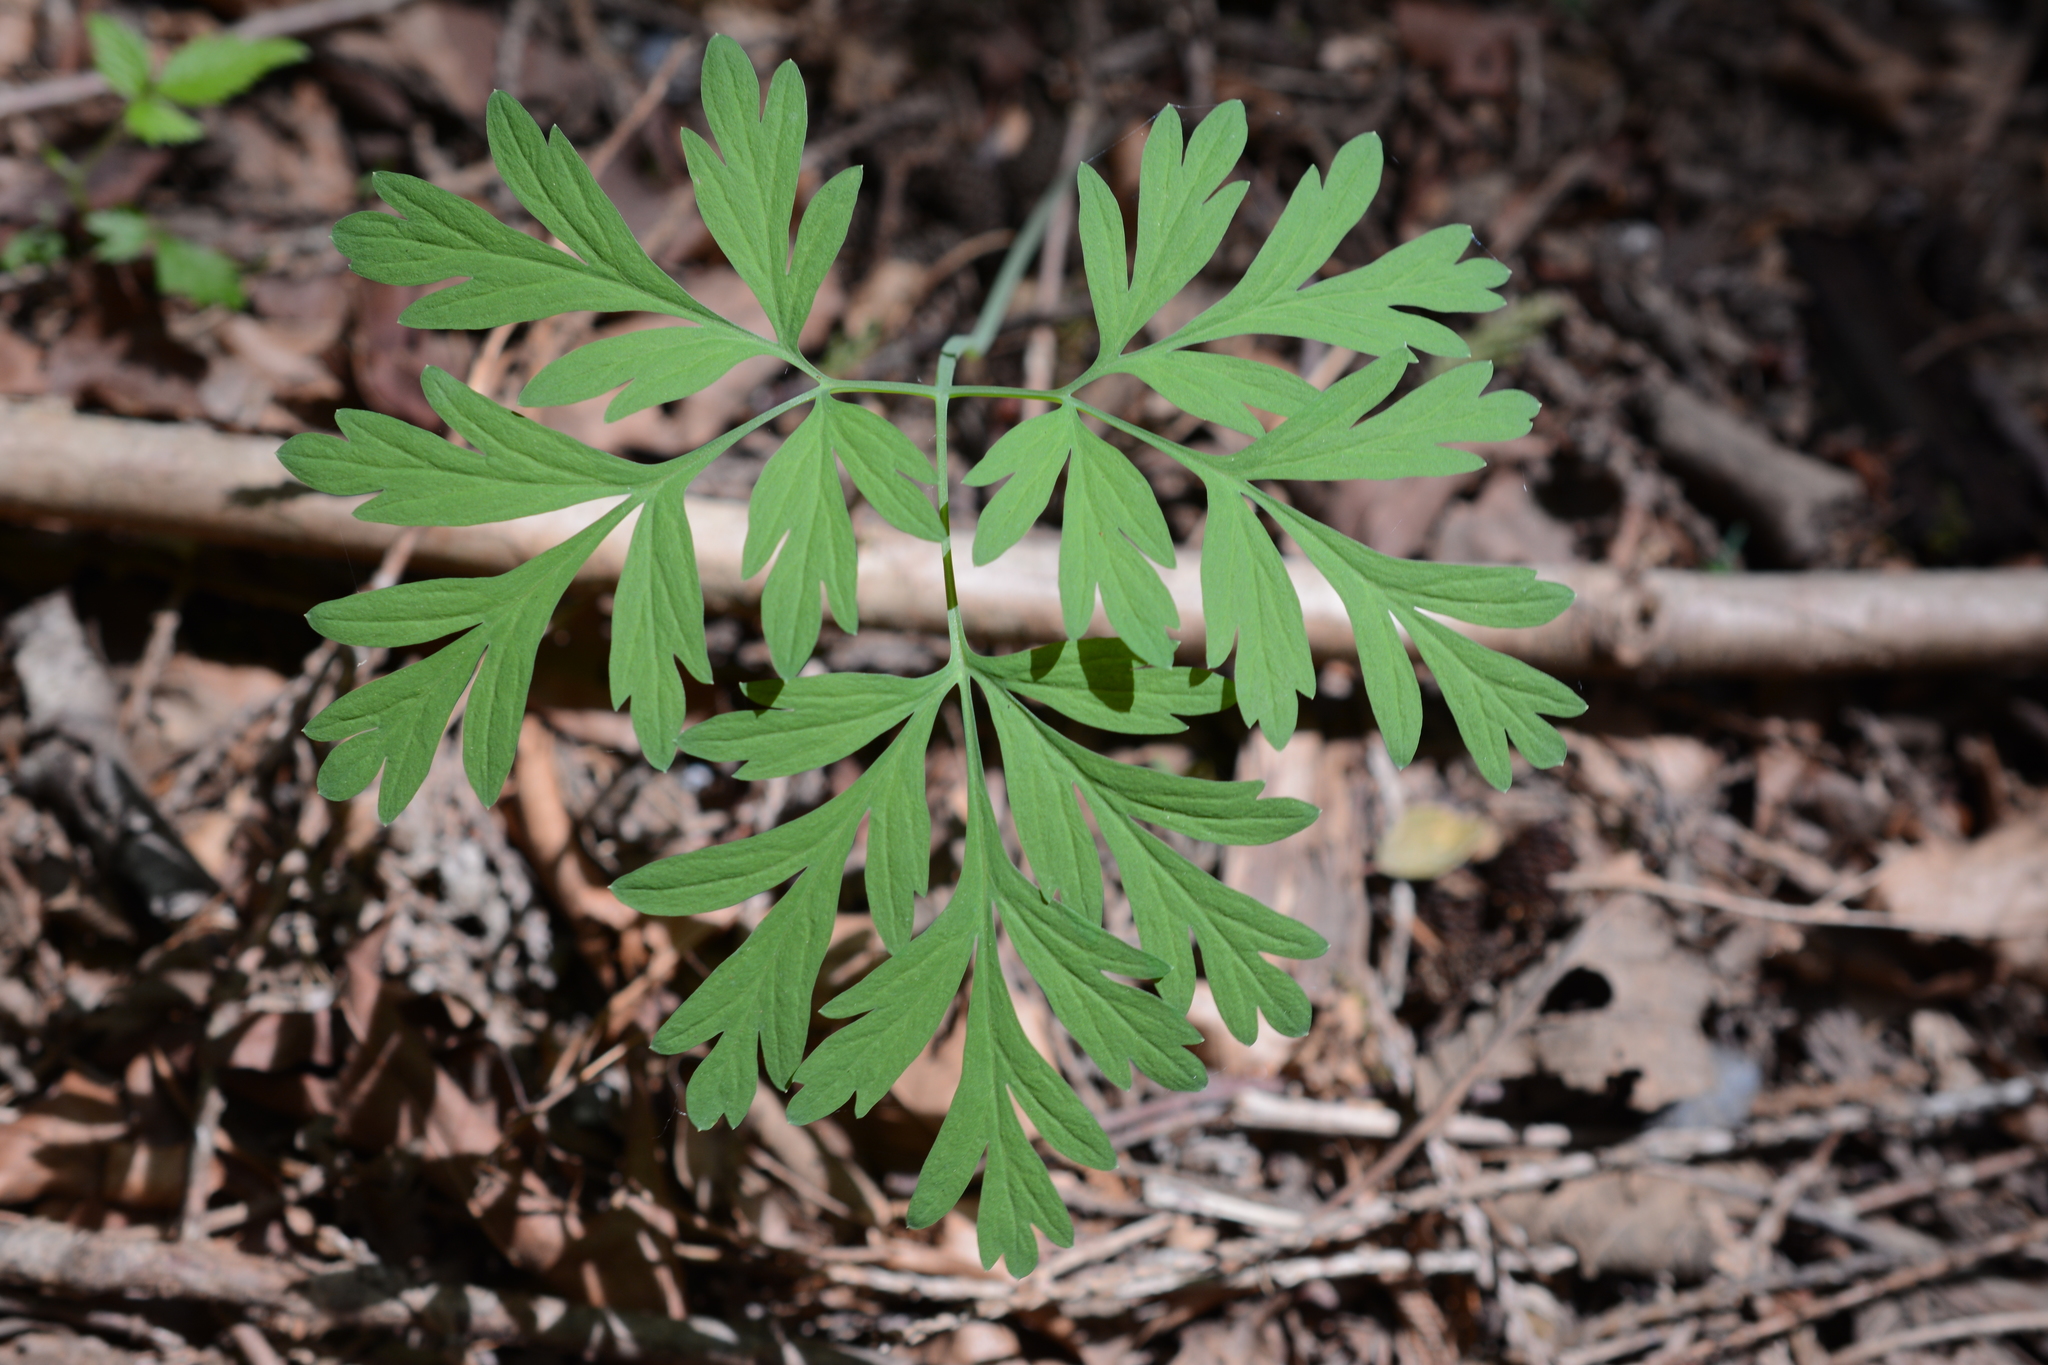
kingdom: Plantae
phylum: Tracheophyta
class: Magnoliopsida
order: Ranunculales
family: Papaveraceae
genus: Dicentra
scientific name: Dicentra formosa
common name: Bleeding-heart
